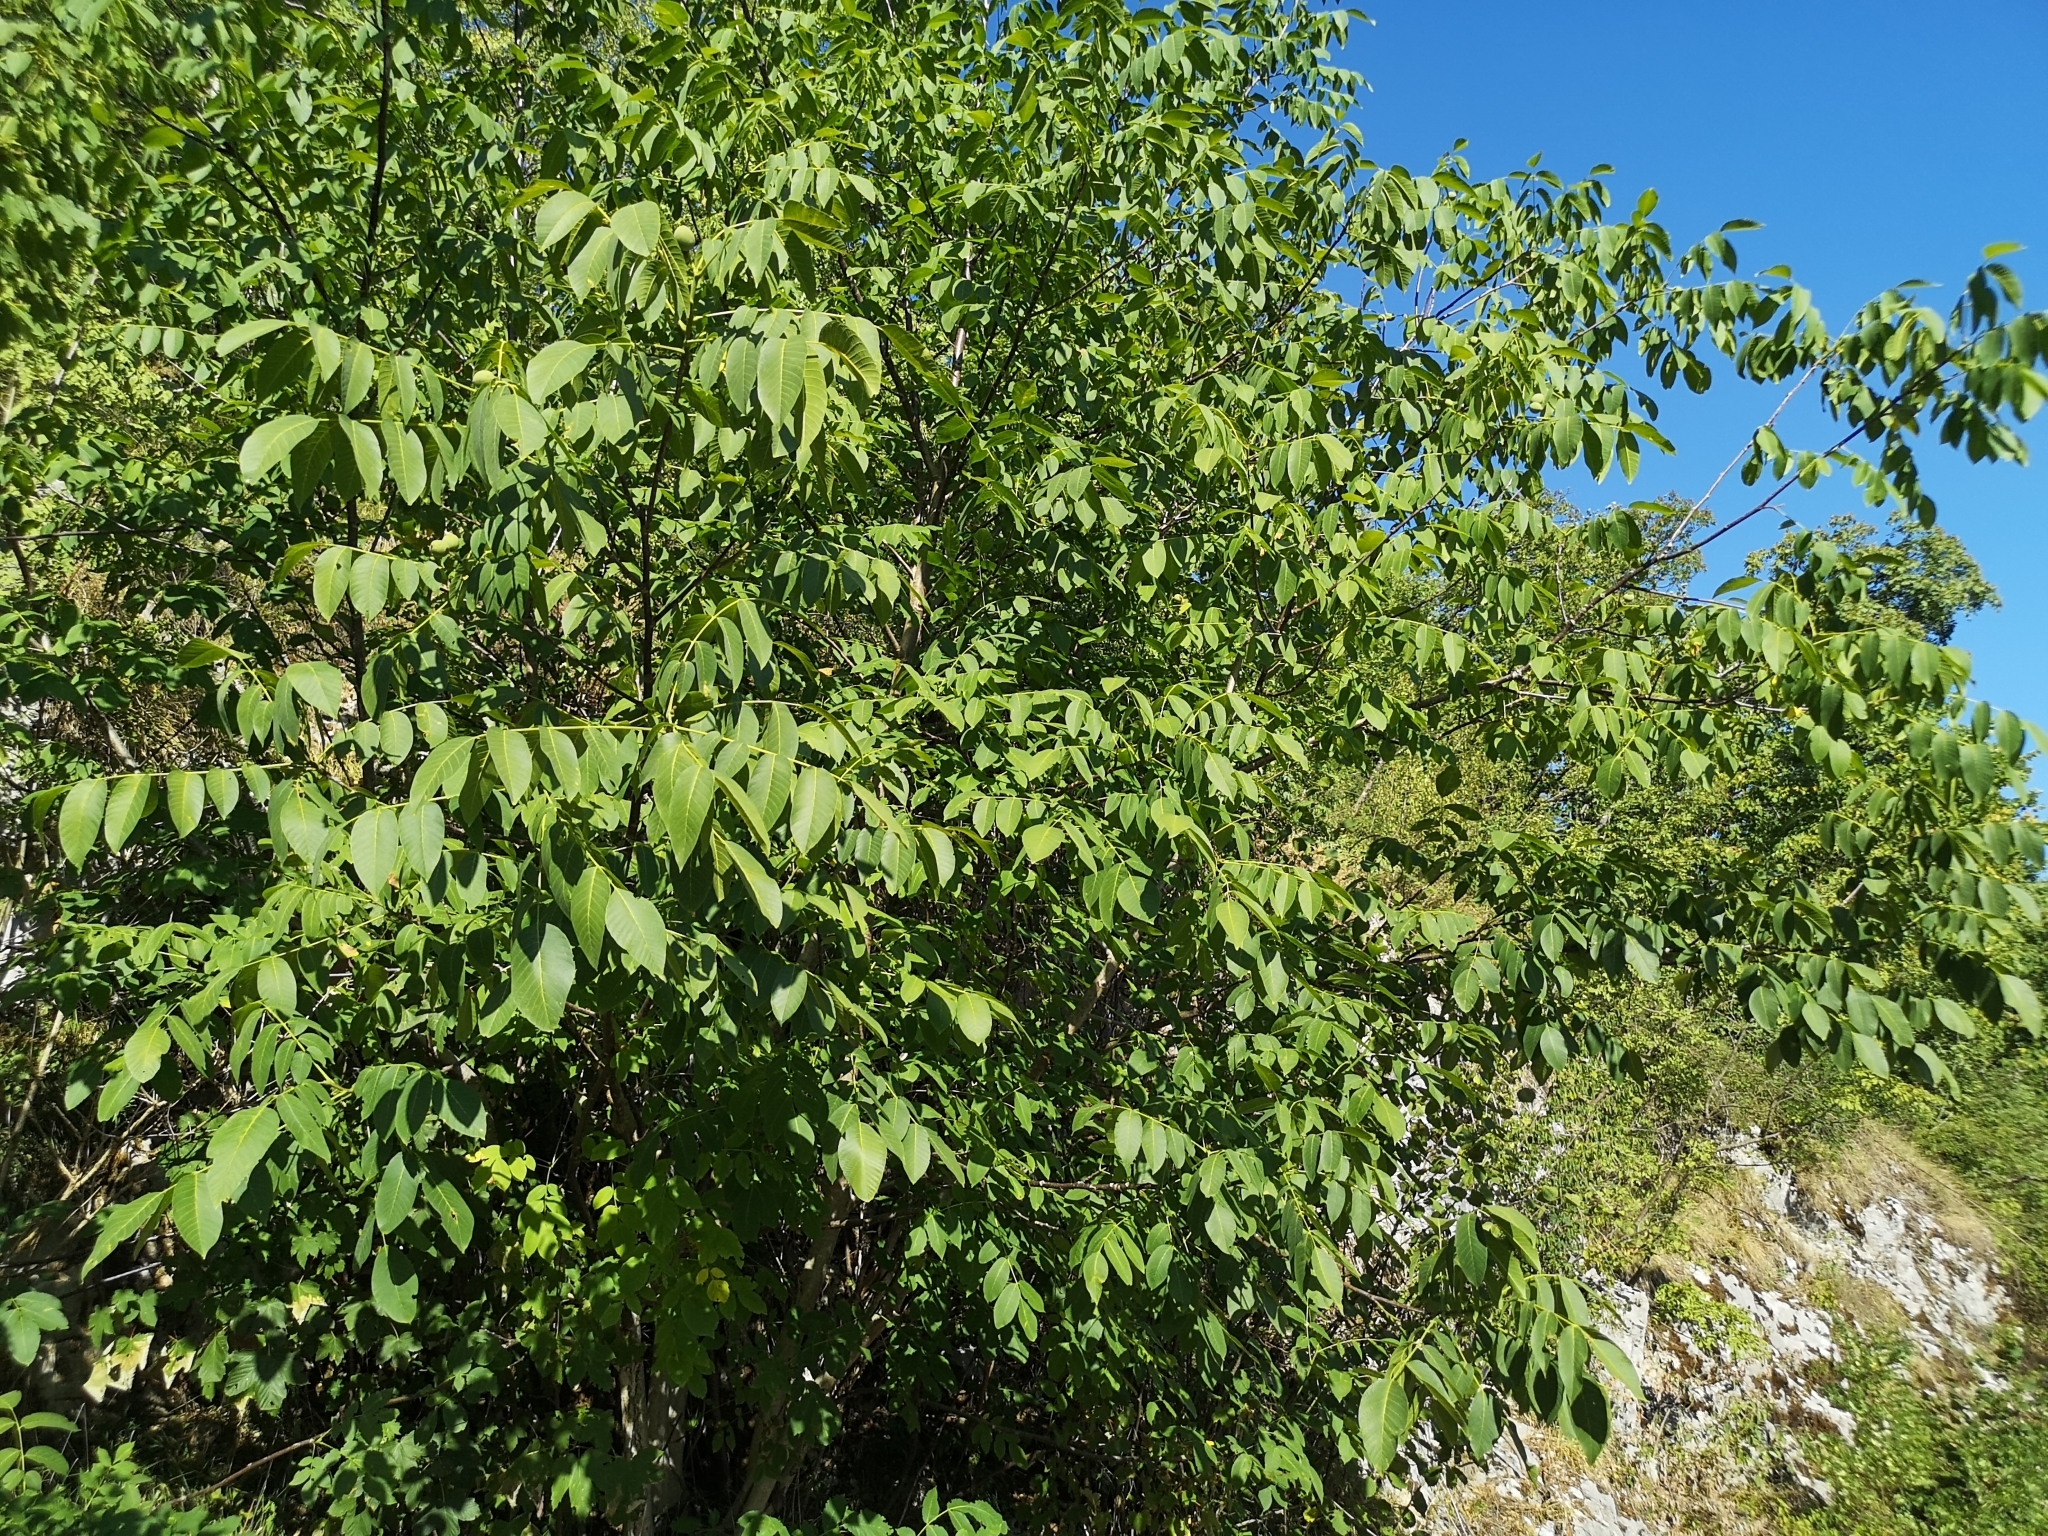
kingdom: Plantae
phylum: Tracheophyta
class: Magnoliopsida
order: Fagales
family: Juglandaceae
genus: Juglans
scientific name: Juglans regia
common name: Walnut
